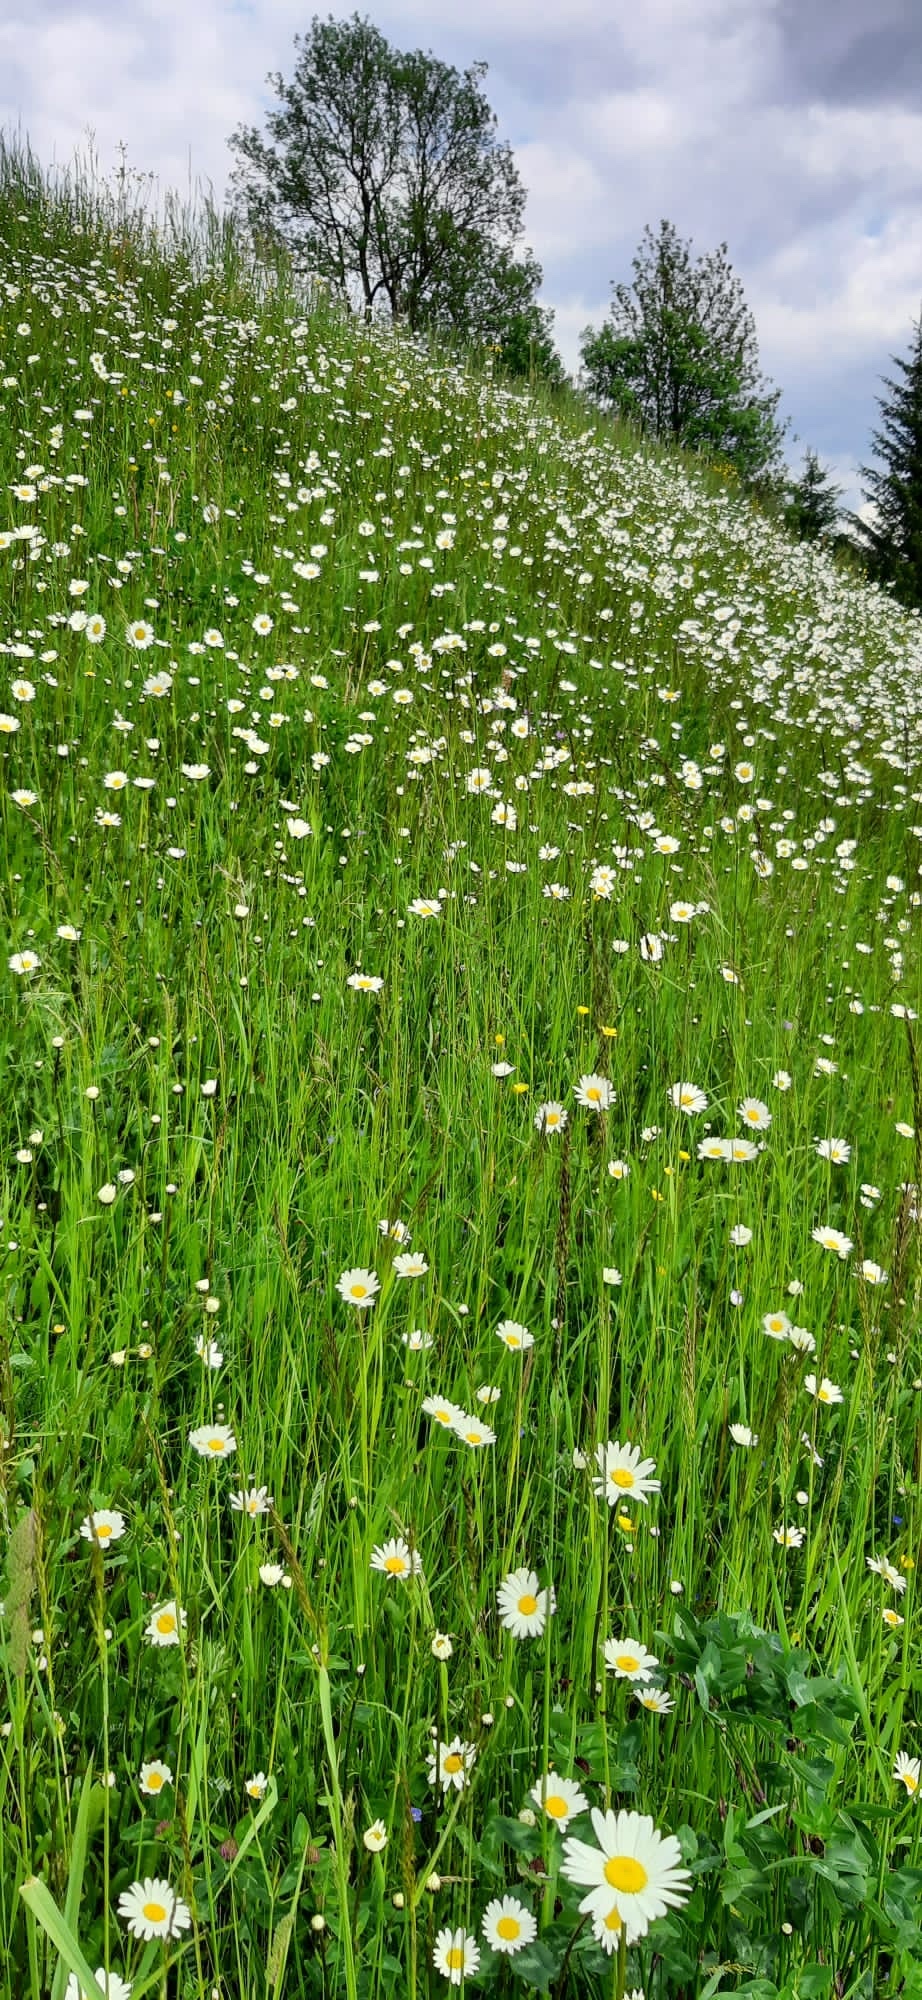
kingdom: Plantae
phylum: Tracheophyta
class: Magnoliopsida
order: Asterales
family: Asteraceae
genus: Leucanthemum
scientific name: Leucanthemum vulgare
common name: Oxeye daisy
